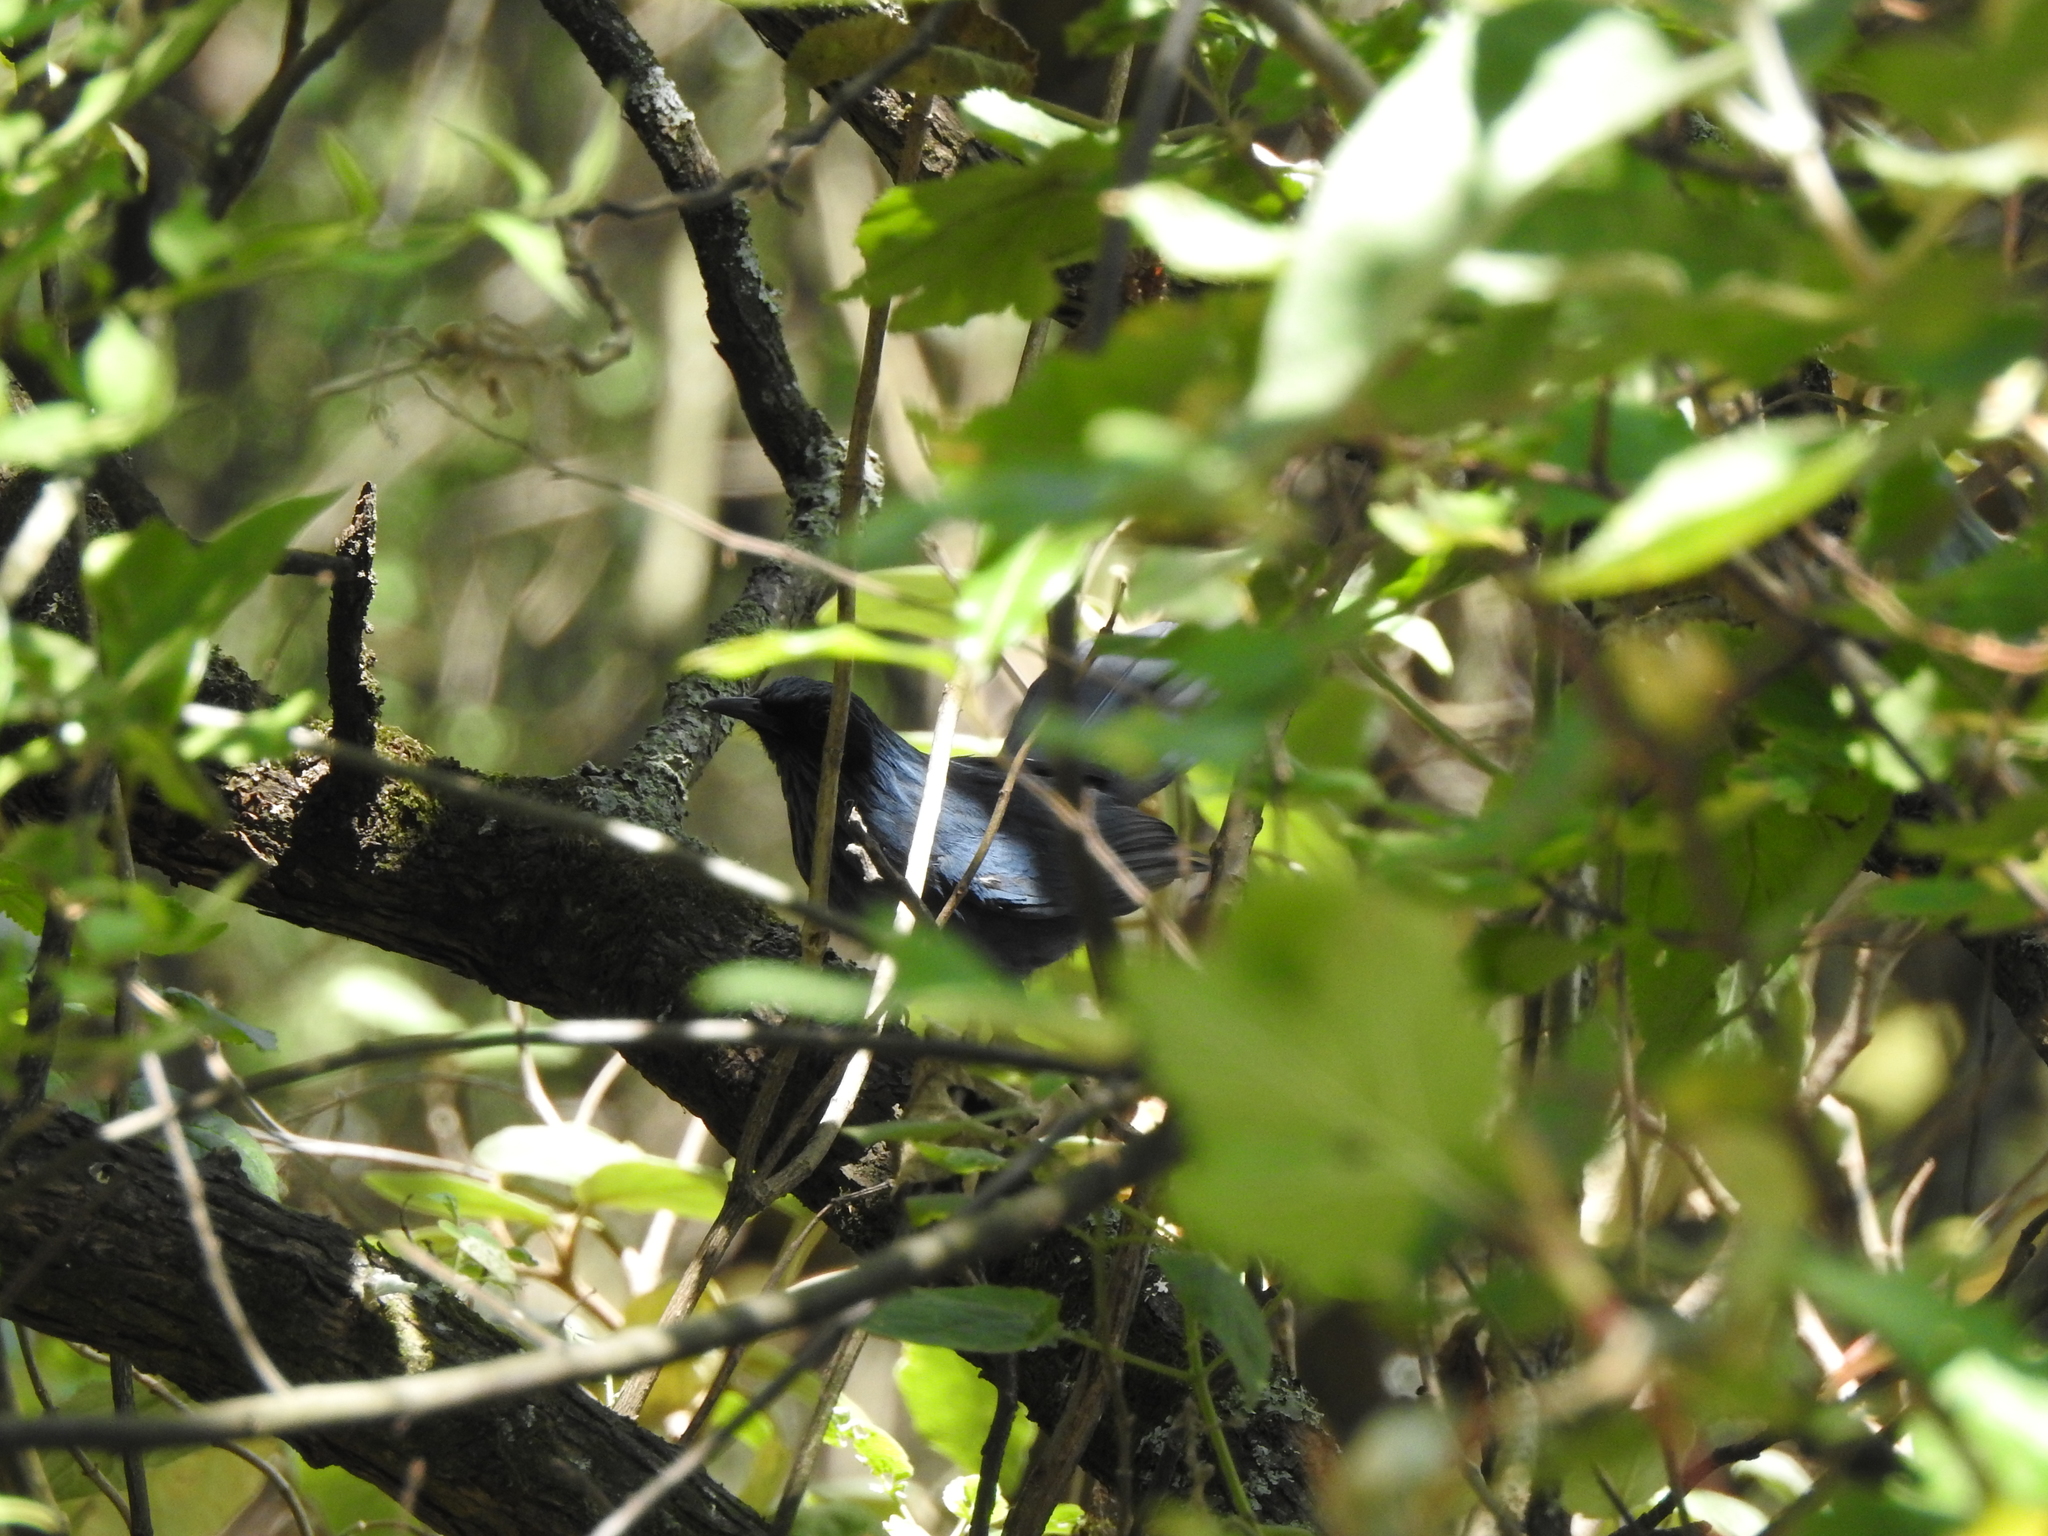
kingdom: Animalia
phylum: Chordata
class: Aves
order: Passeriformes
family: Mimidae
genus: Melanotis
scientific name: Melanotis caerulescens
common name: Blue mockingbird
